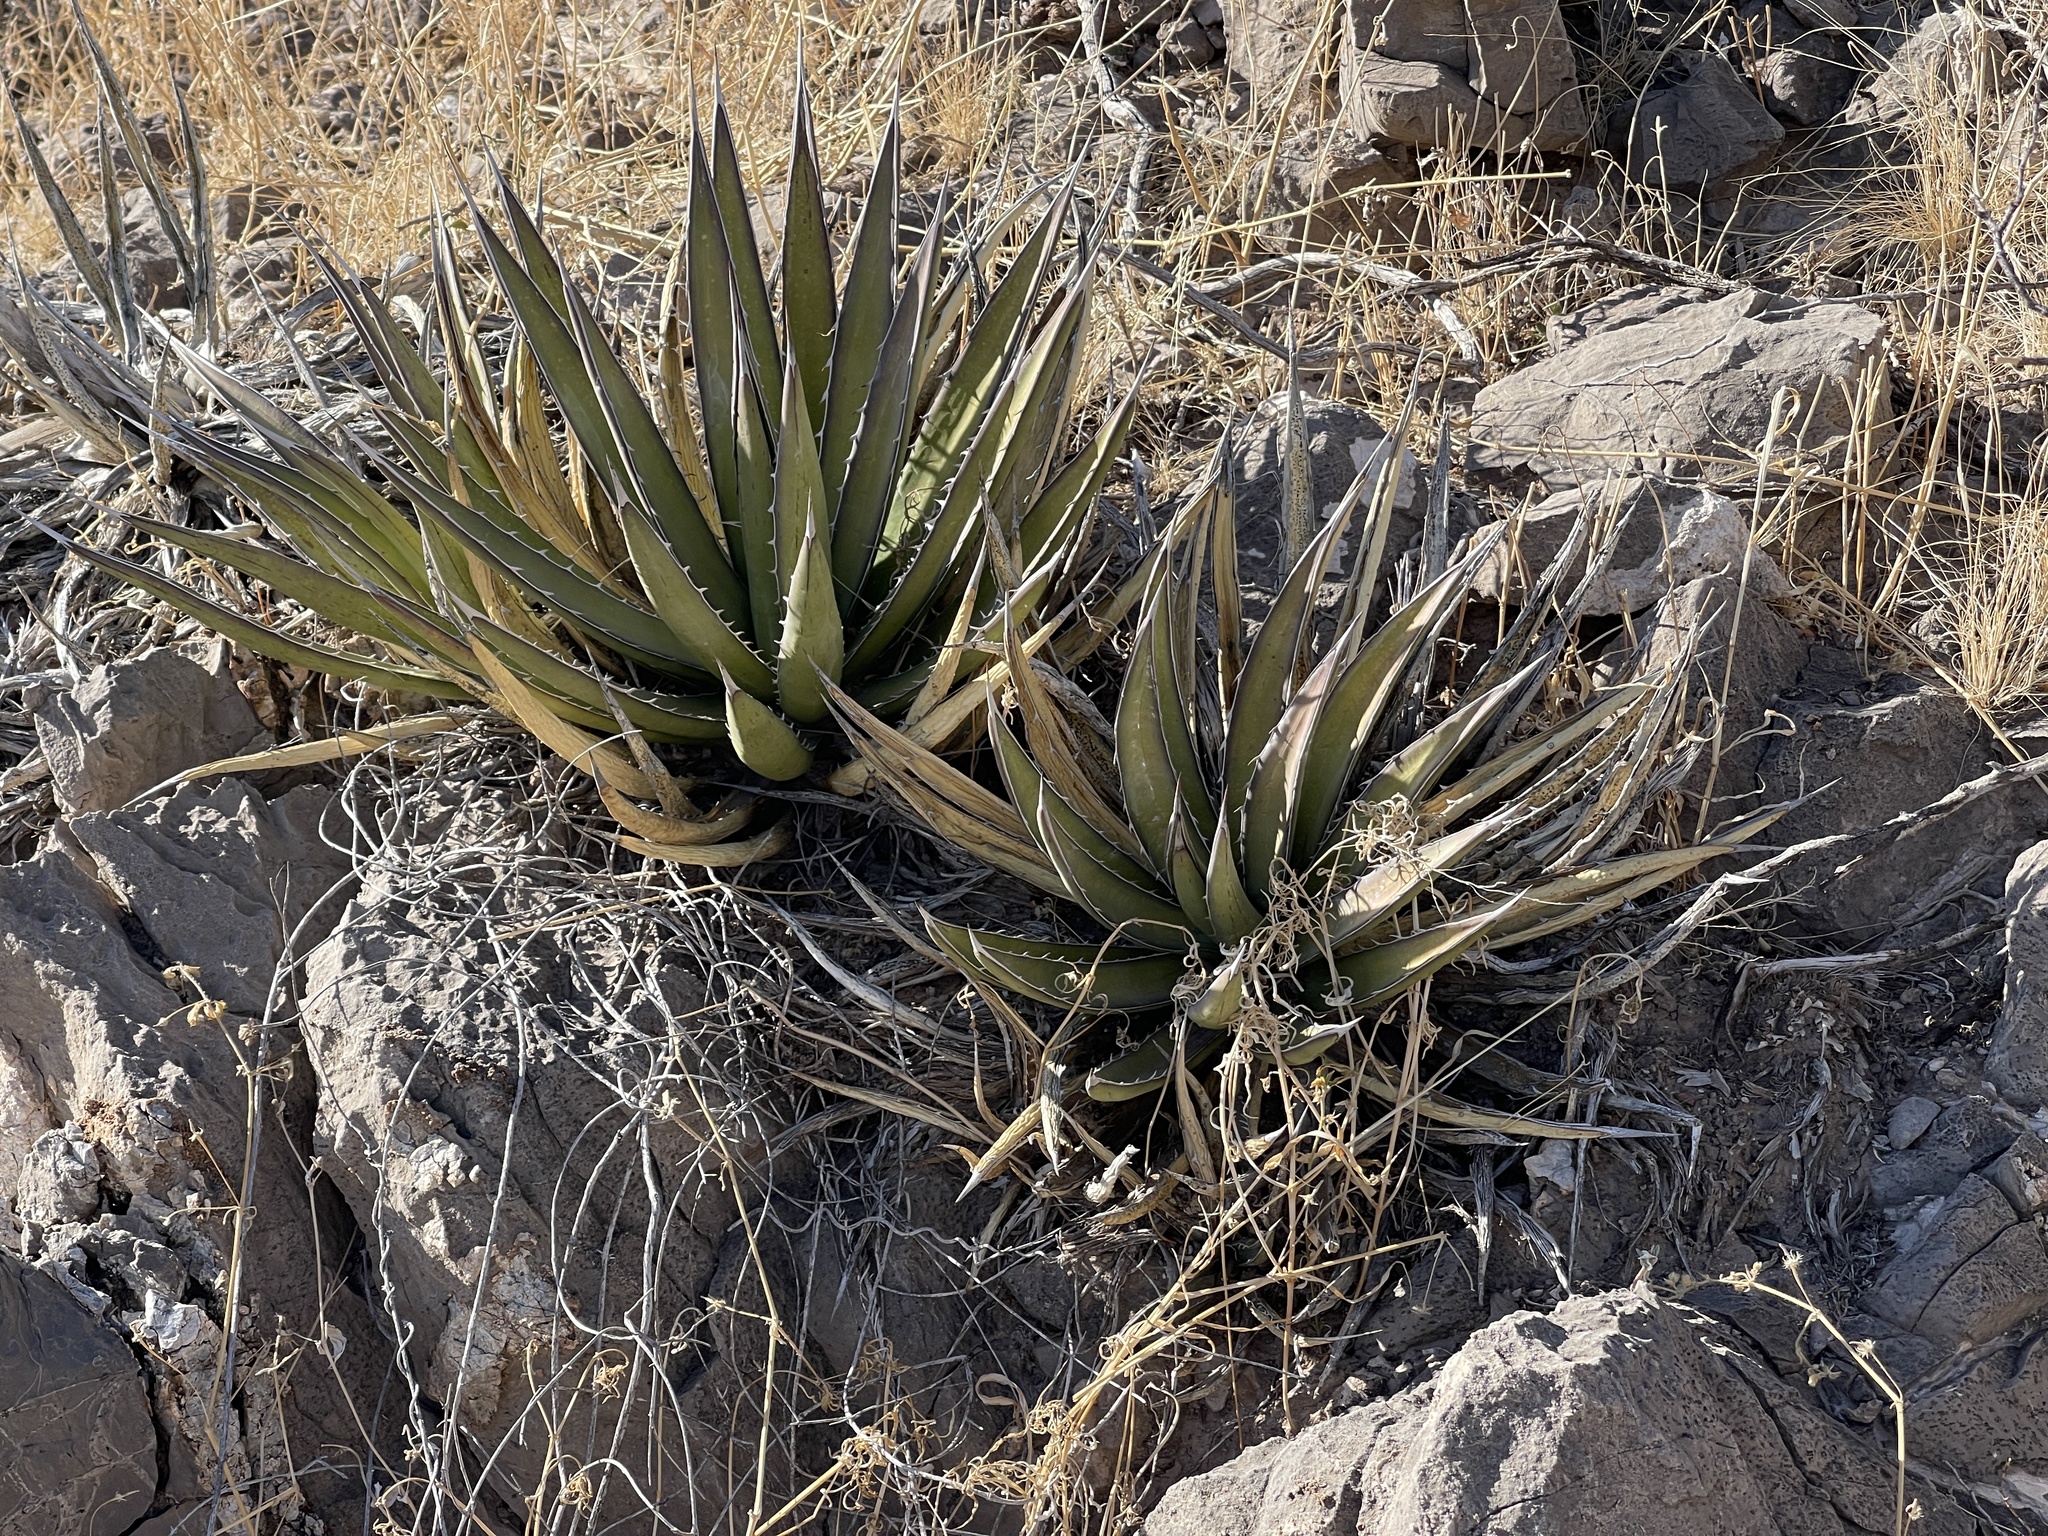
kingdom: Plantae
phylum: Tracheophyta
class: Liliopsida
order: Asparagales
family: Asparagaceae
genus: Agave
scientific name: Agave lechuguilla
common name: Lecheguilla agave
